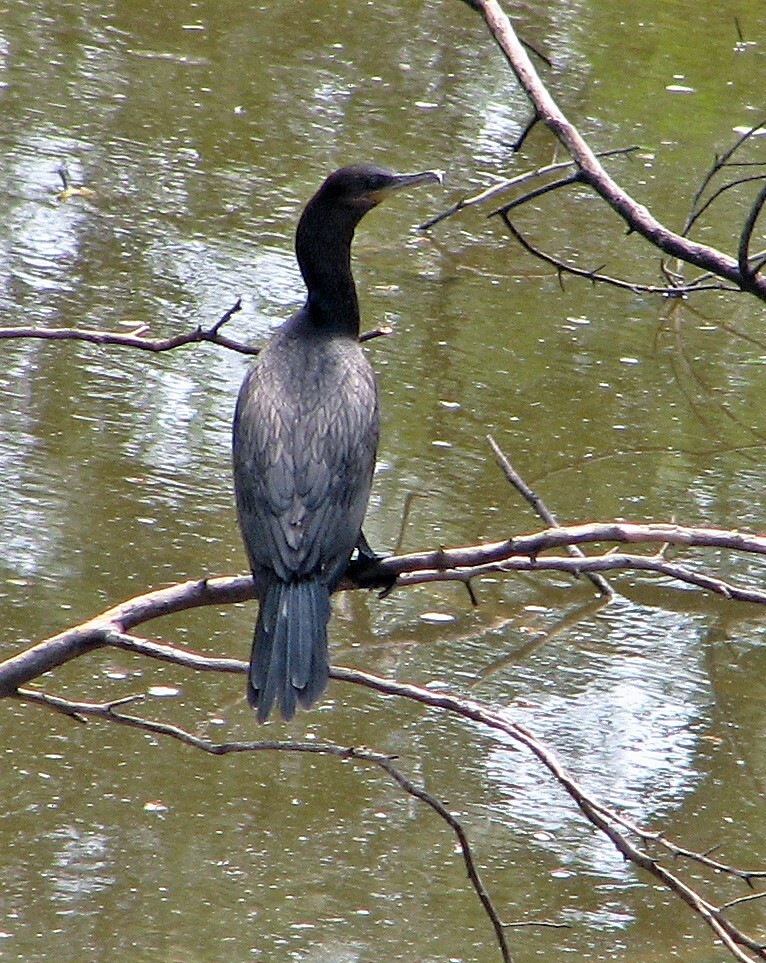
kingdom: Animalia
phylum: Chordata
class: Aves
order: Suliformes
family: Phalacrocoracidae
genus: Phalacrocorax
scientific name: Phalacrocorax brasilianus
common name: Neotropic cormorant
